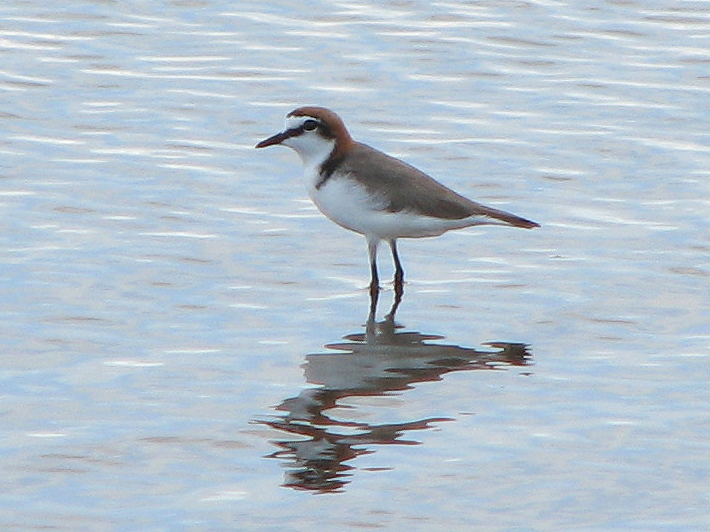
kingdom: Animalia
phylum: Chordata
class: Aves
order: Charadriiformes
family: Charadriidae
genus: Anarhynchus
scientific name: Anarhynchus
